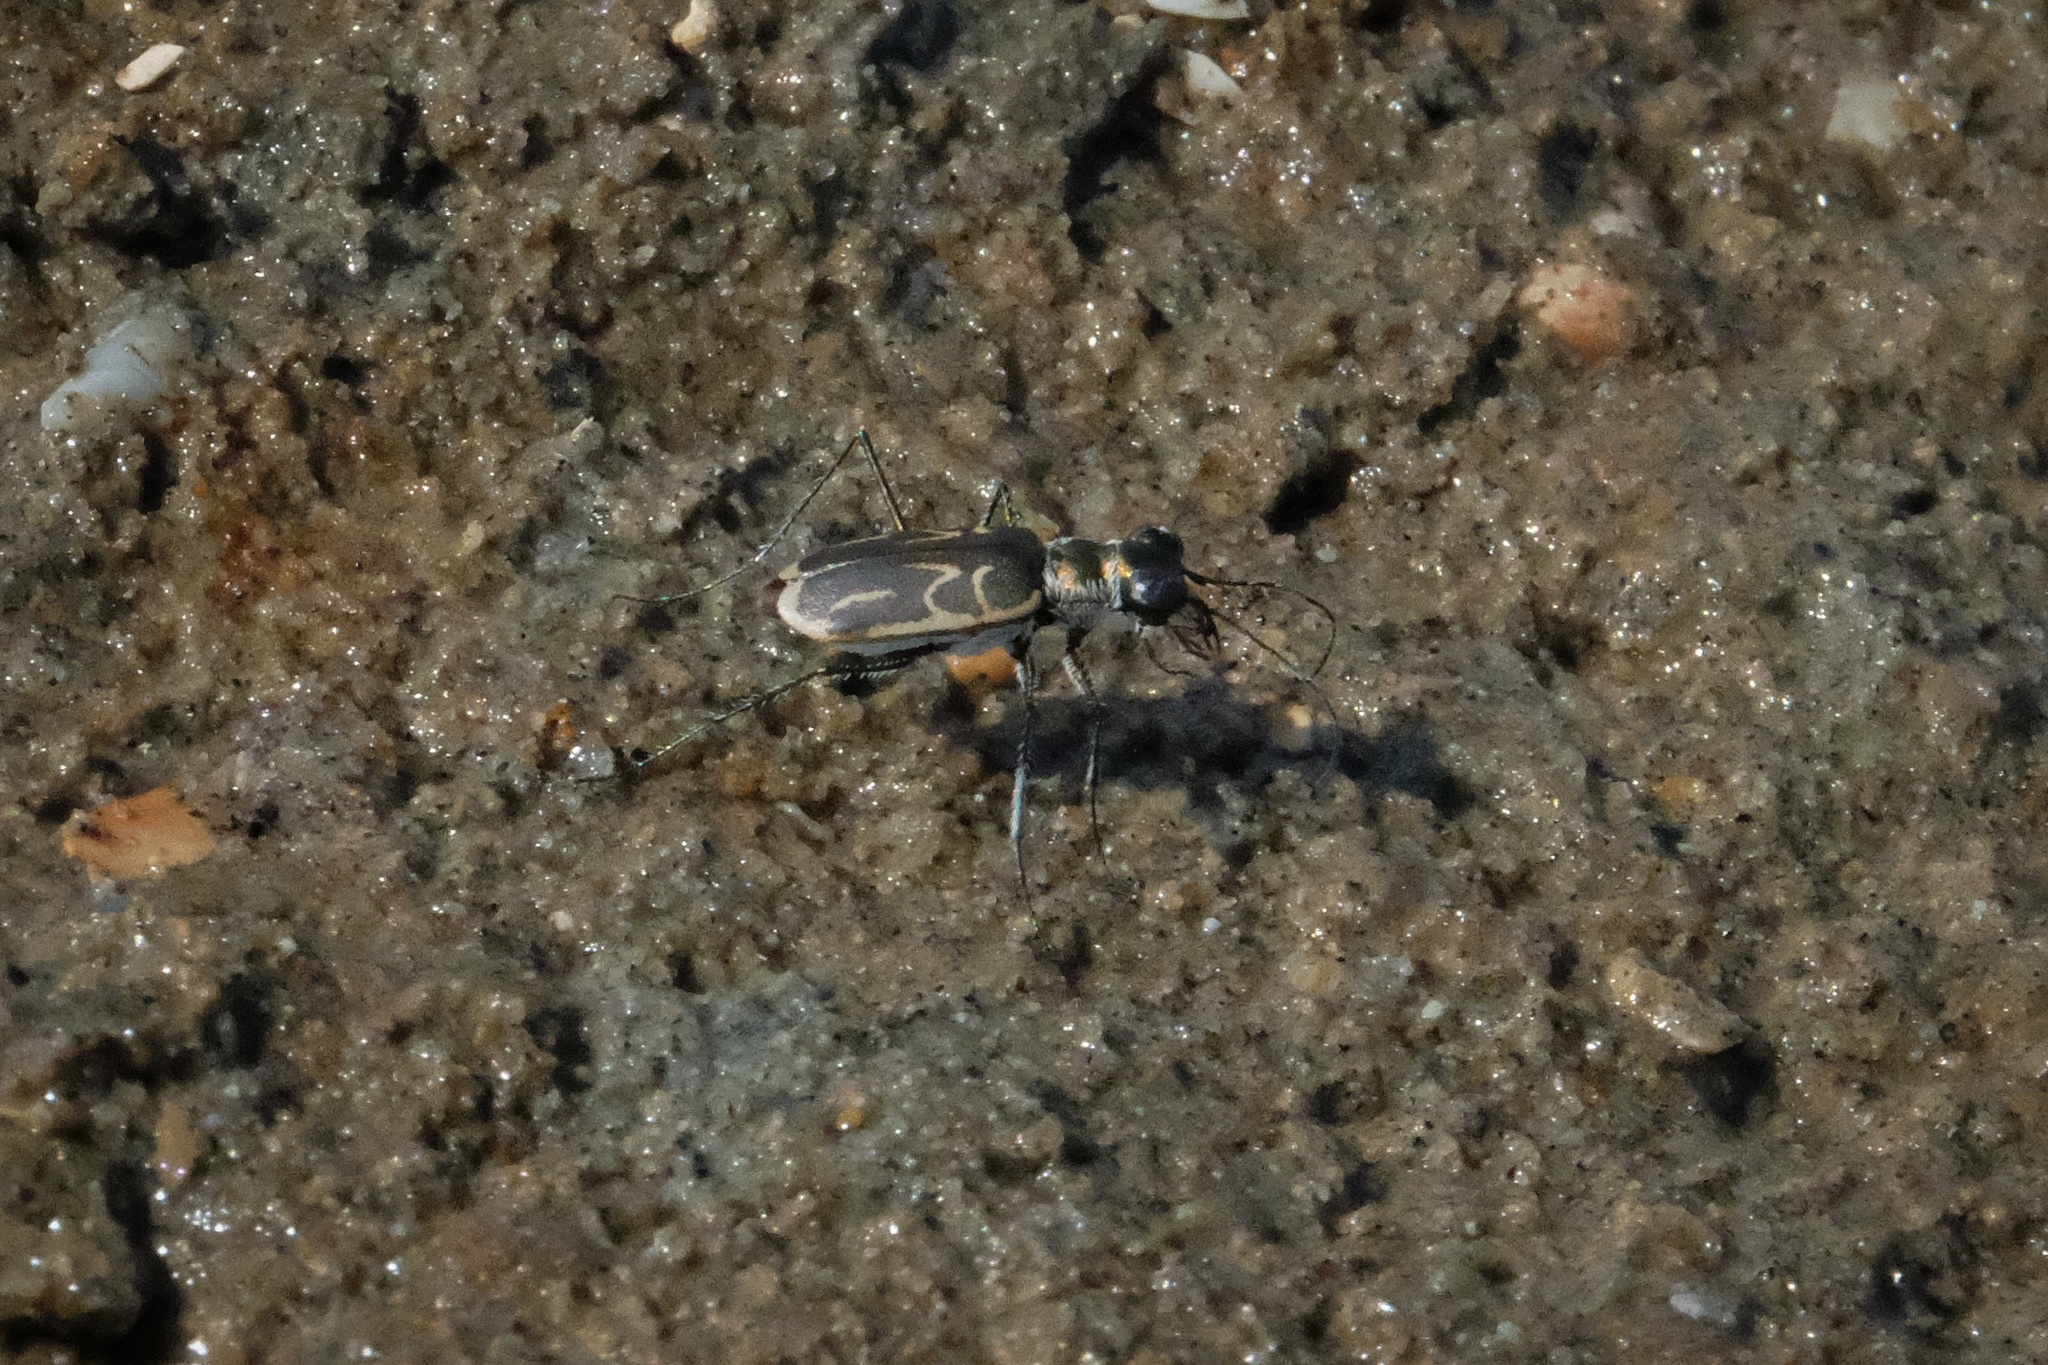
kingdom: Animalia
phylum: Arthropoda
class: Insecta
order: Coleoptera
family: Carabidae
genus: Eunota
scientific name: Eunota gabbii
